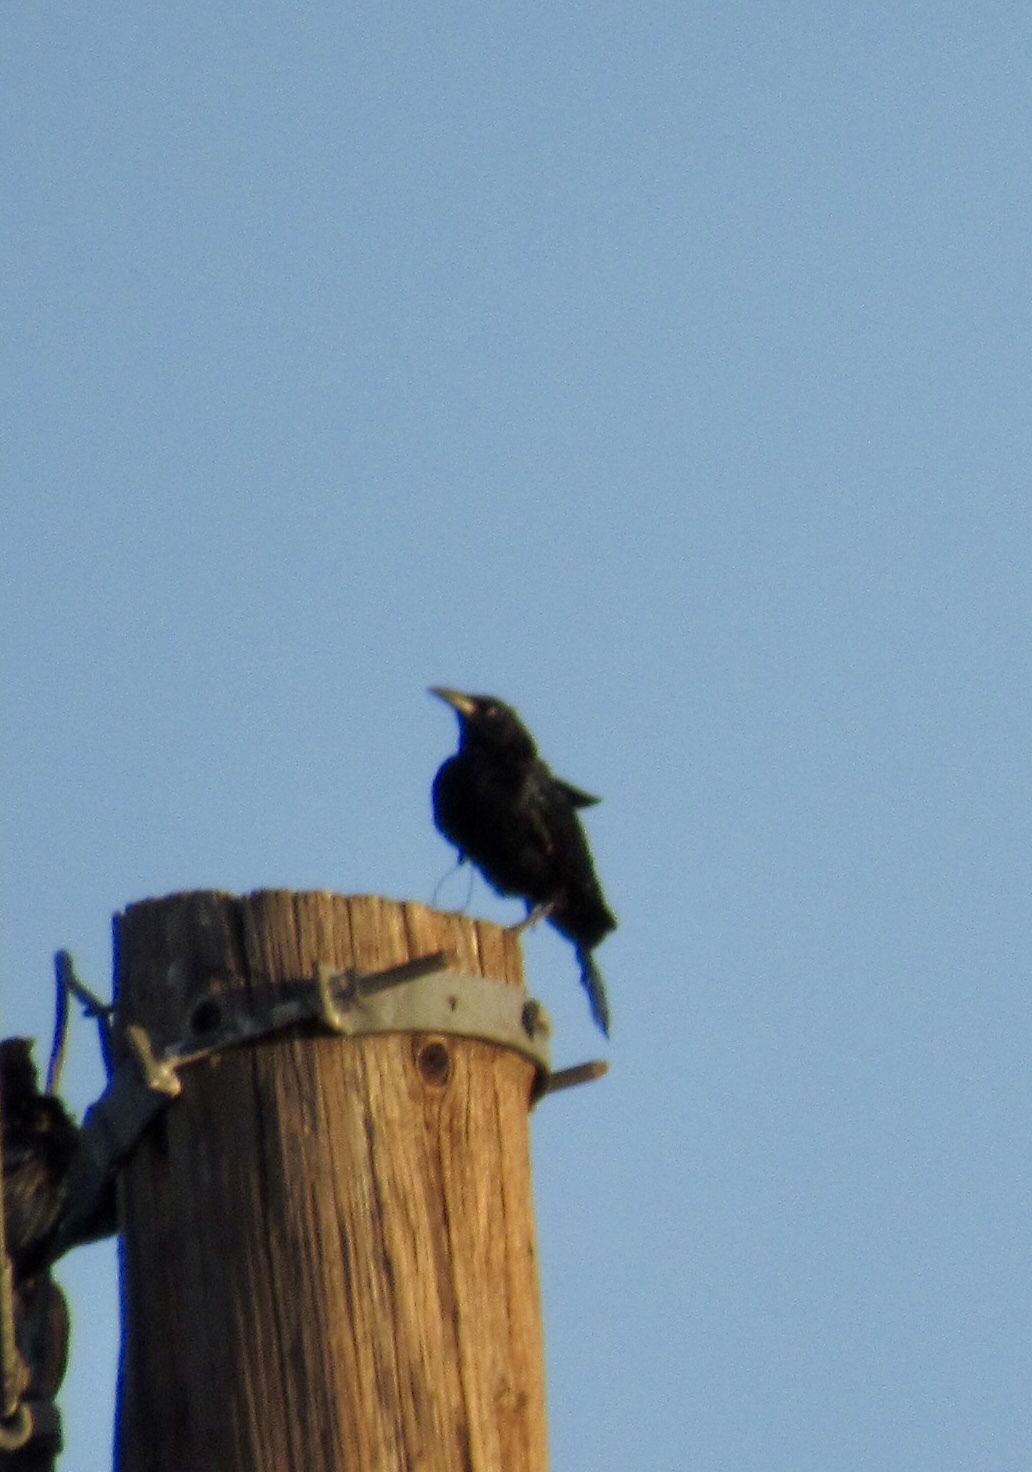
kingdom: Animalia
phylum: Chordata
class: Aves
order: Passeriformes
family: Icteridae
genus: Quiscalus
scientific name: Quiscalus mexicanus
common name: Great-tailed grackle
